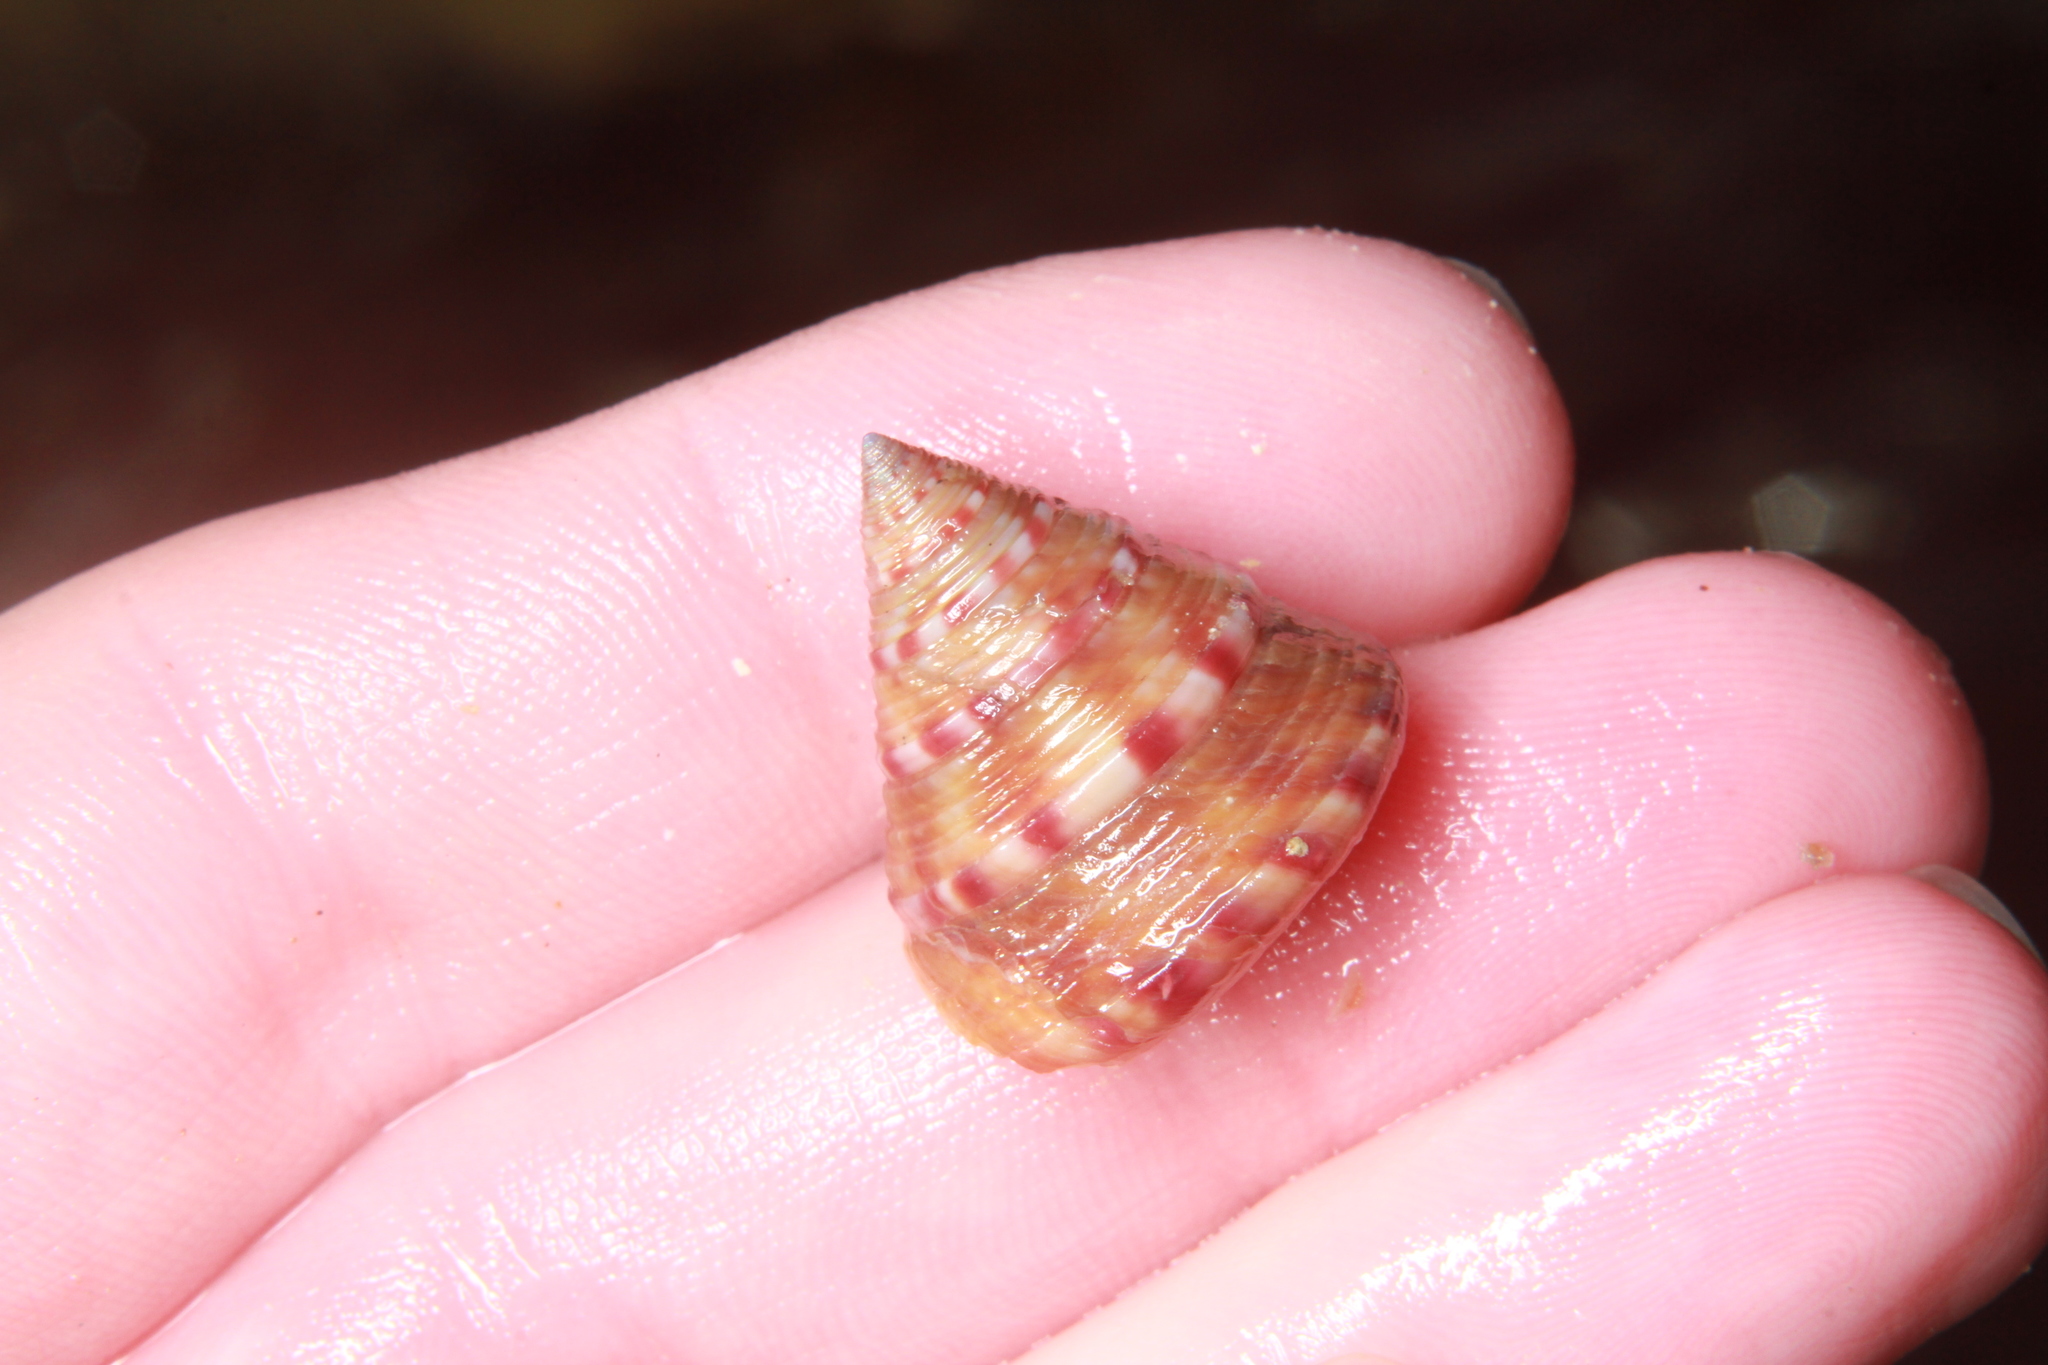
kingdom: Animalia
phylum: Mollusca
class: Gastropoda
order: Trochida
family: Calliostomatidae
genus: Calliostoma
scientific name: Calliostoma zizyphinum
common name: Painted top shell
